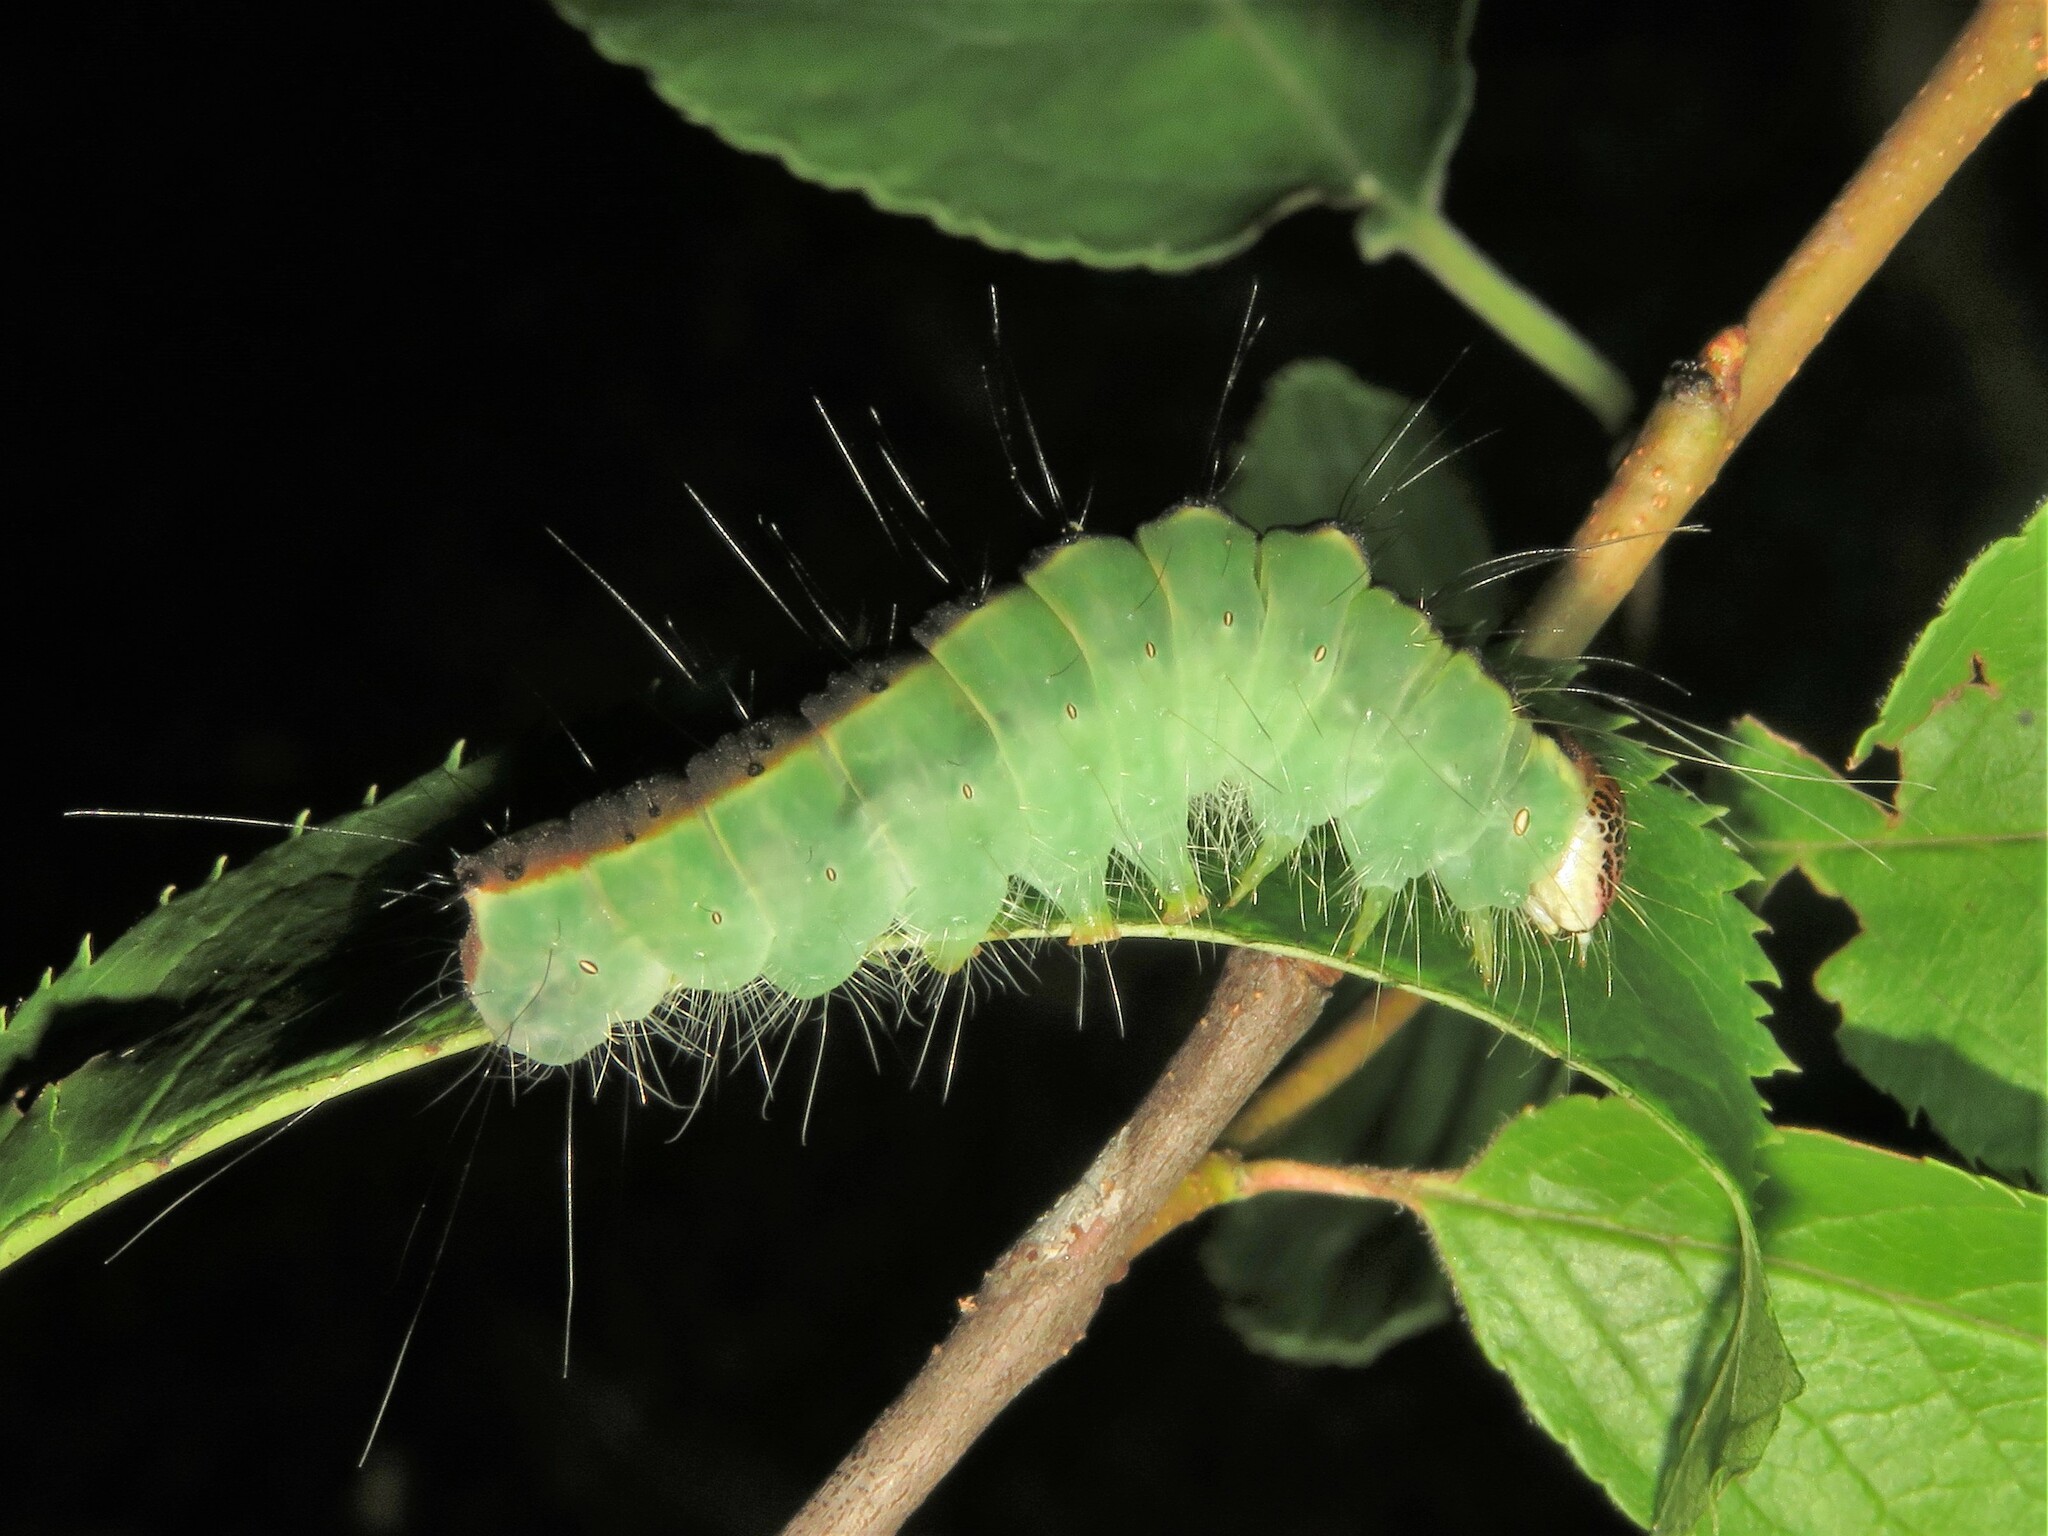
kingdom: Animalia
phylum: Arthropoda
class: Insecta
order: Lepidoptera
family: Noctuidae
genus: Acronicta
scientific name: Acronicta superans
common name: Splendid dagger
